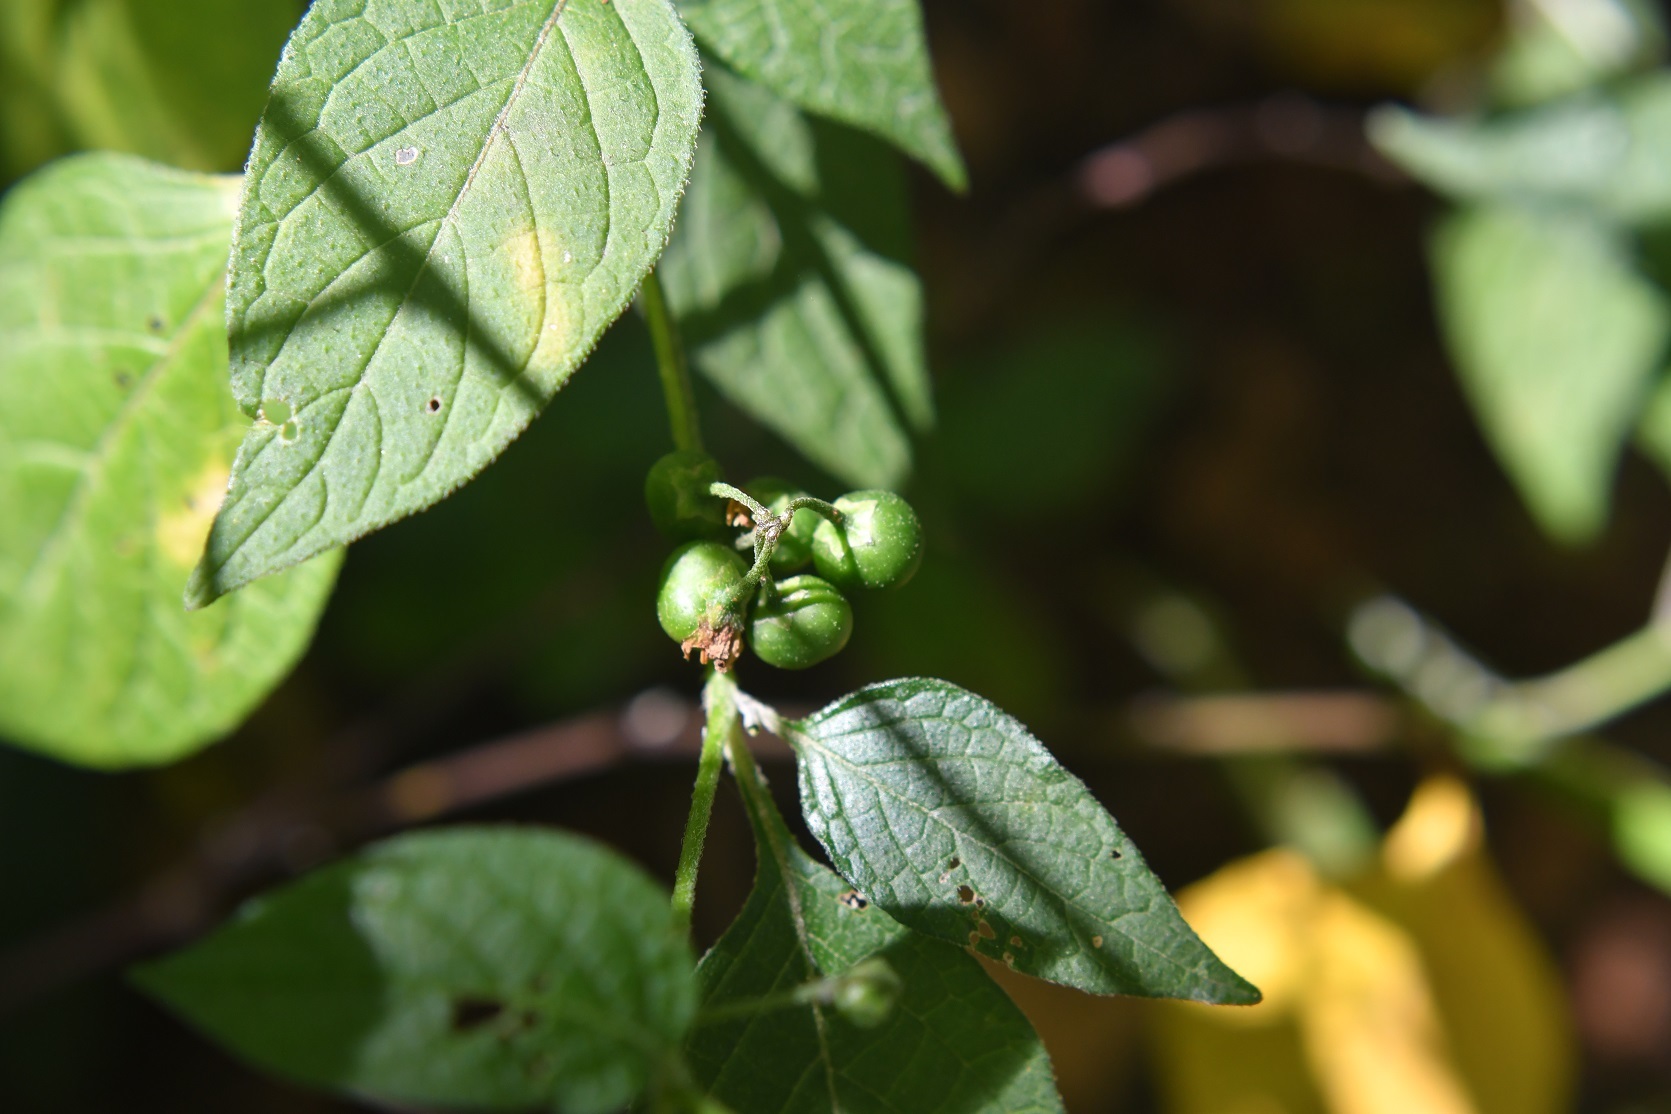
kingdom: Plantae
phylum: Tracheophyta
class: Magnoliopsida
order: Solanales
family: Solanaceae
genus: Solanum
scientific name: Solanum nigrescens
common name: Divine nightshade
